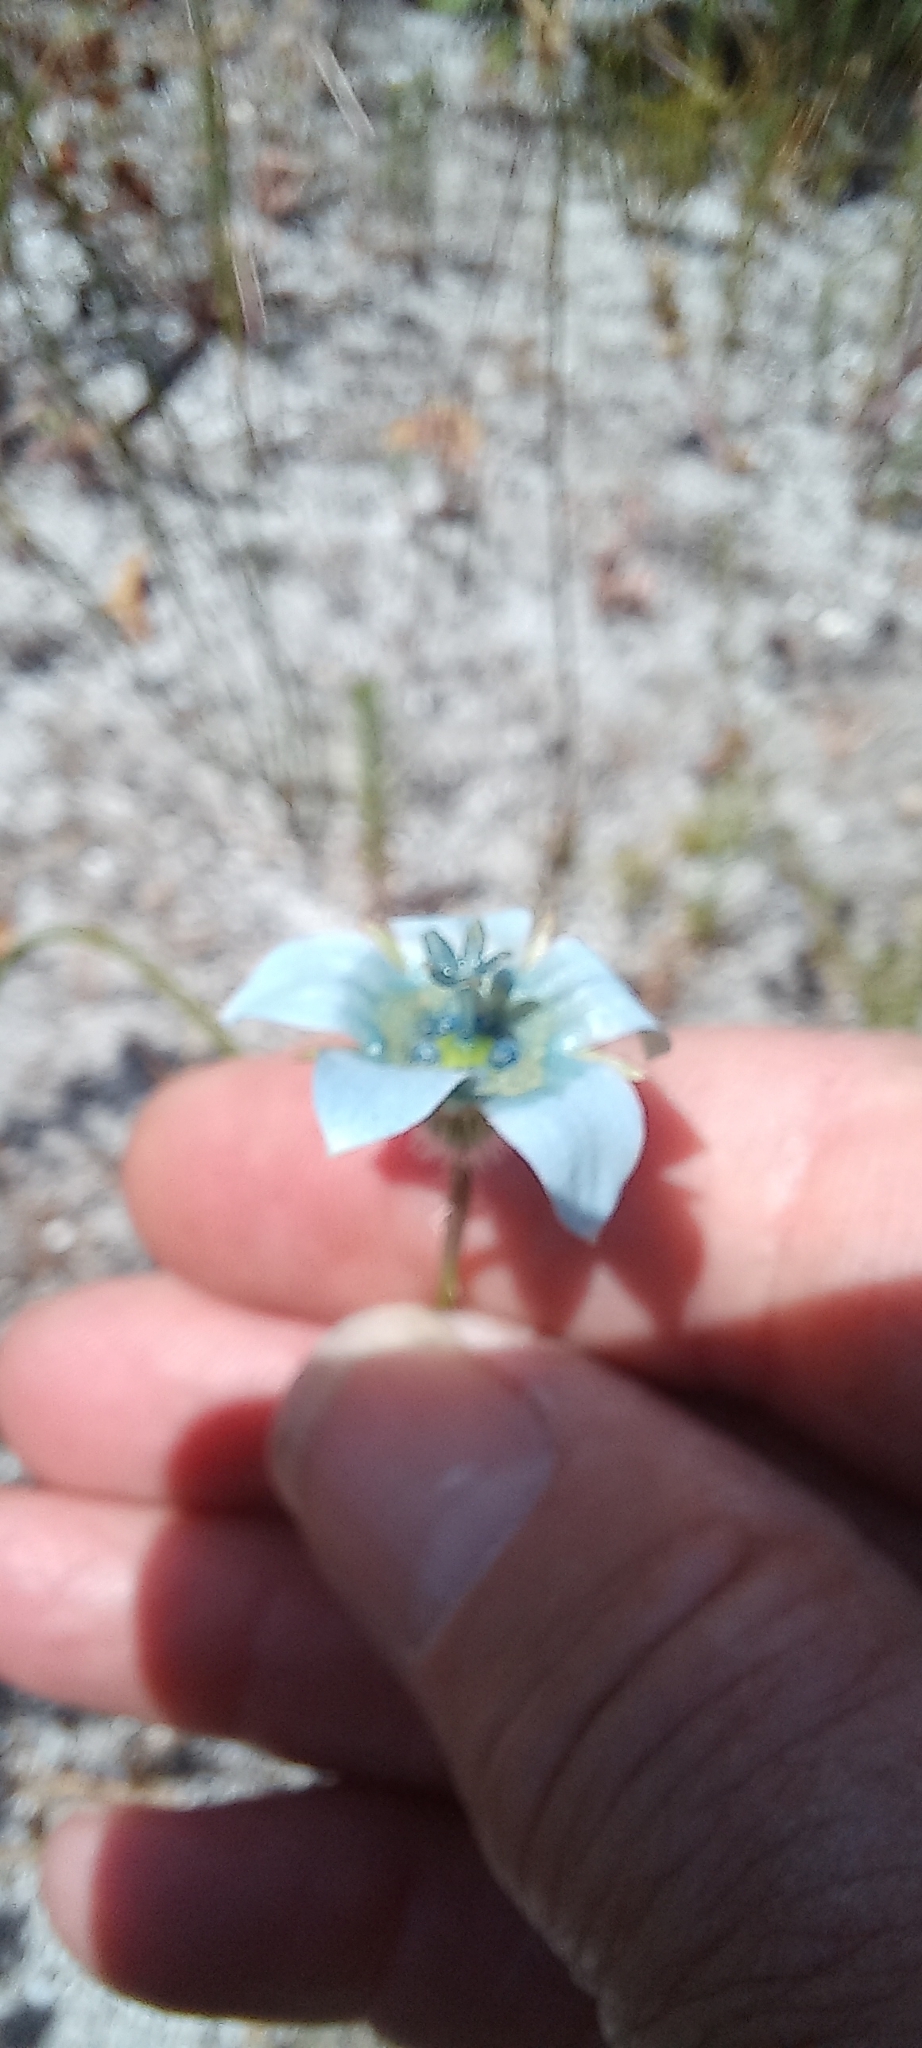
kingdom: Plantae
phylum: Tracheophyta
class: Magnoliopsida
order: Asterales
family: Campanulaceae
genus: Wahlenbergia
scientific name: Wahlenbergia capensis
